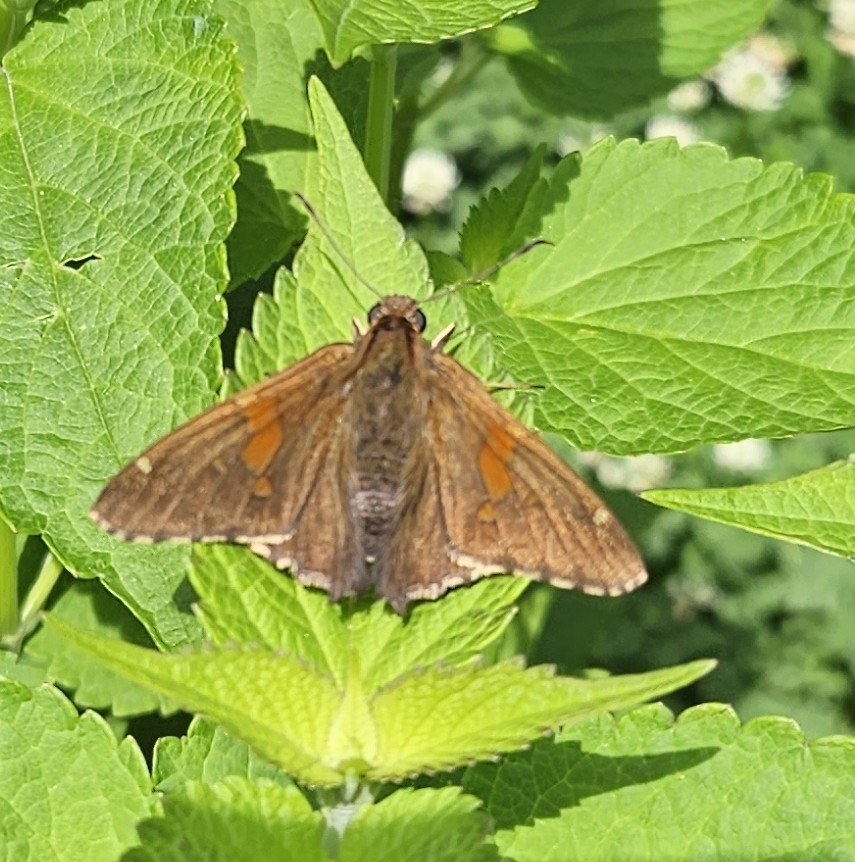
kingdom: Animalia
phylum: Arthropoda
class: Insecta
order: Lepidoptera
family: Hesperiidae
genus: Epargyreus
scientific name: Epargyreus clarus
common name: Silver-spotted skipper
